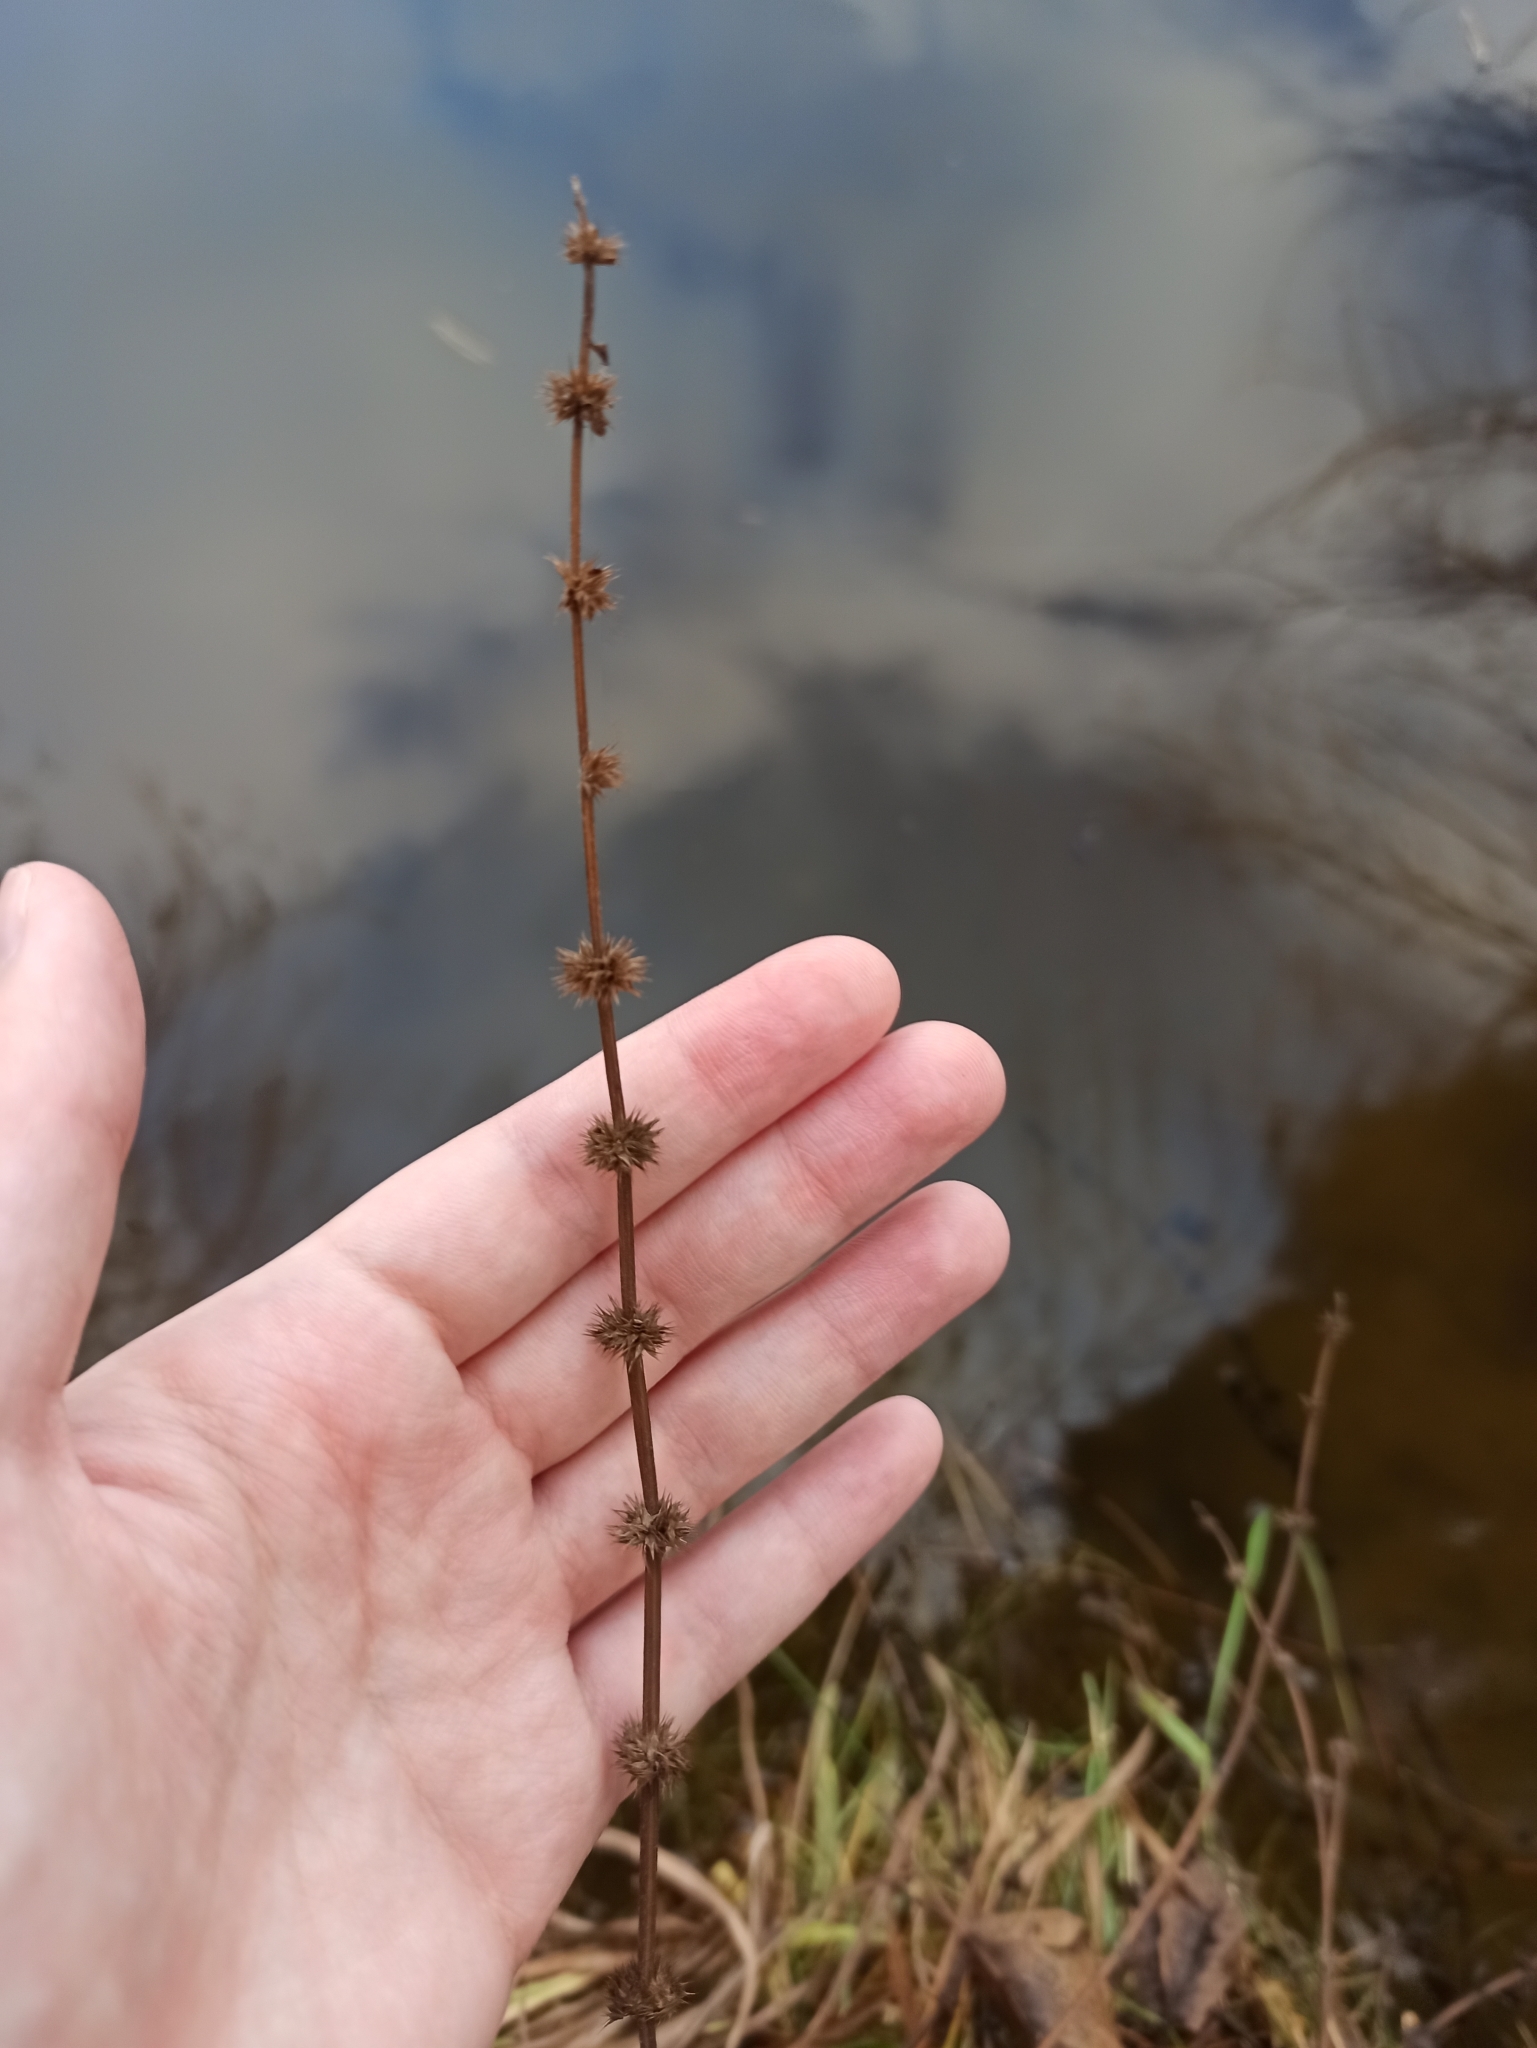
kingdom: Plantae
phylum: Tracheophyta
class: Magnoliopsida
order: Lamiales
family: Lamiaceae
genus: Lycopus
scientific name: Lycopus europaeus
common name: European bugleweed
